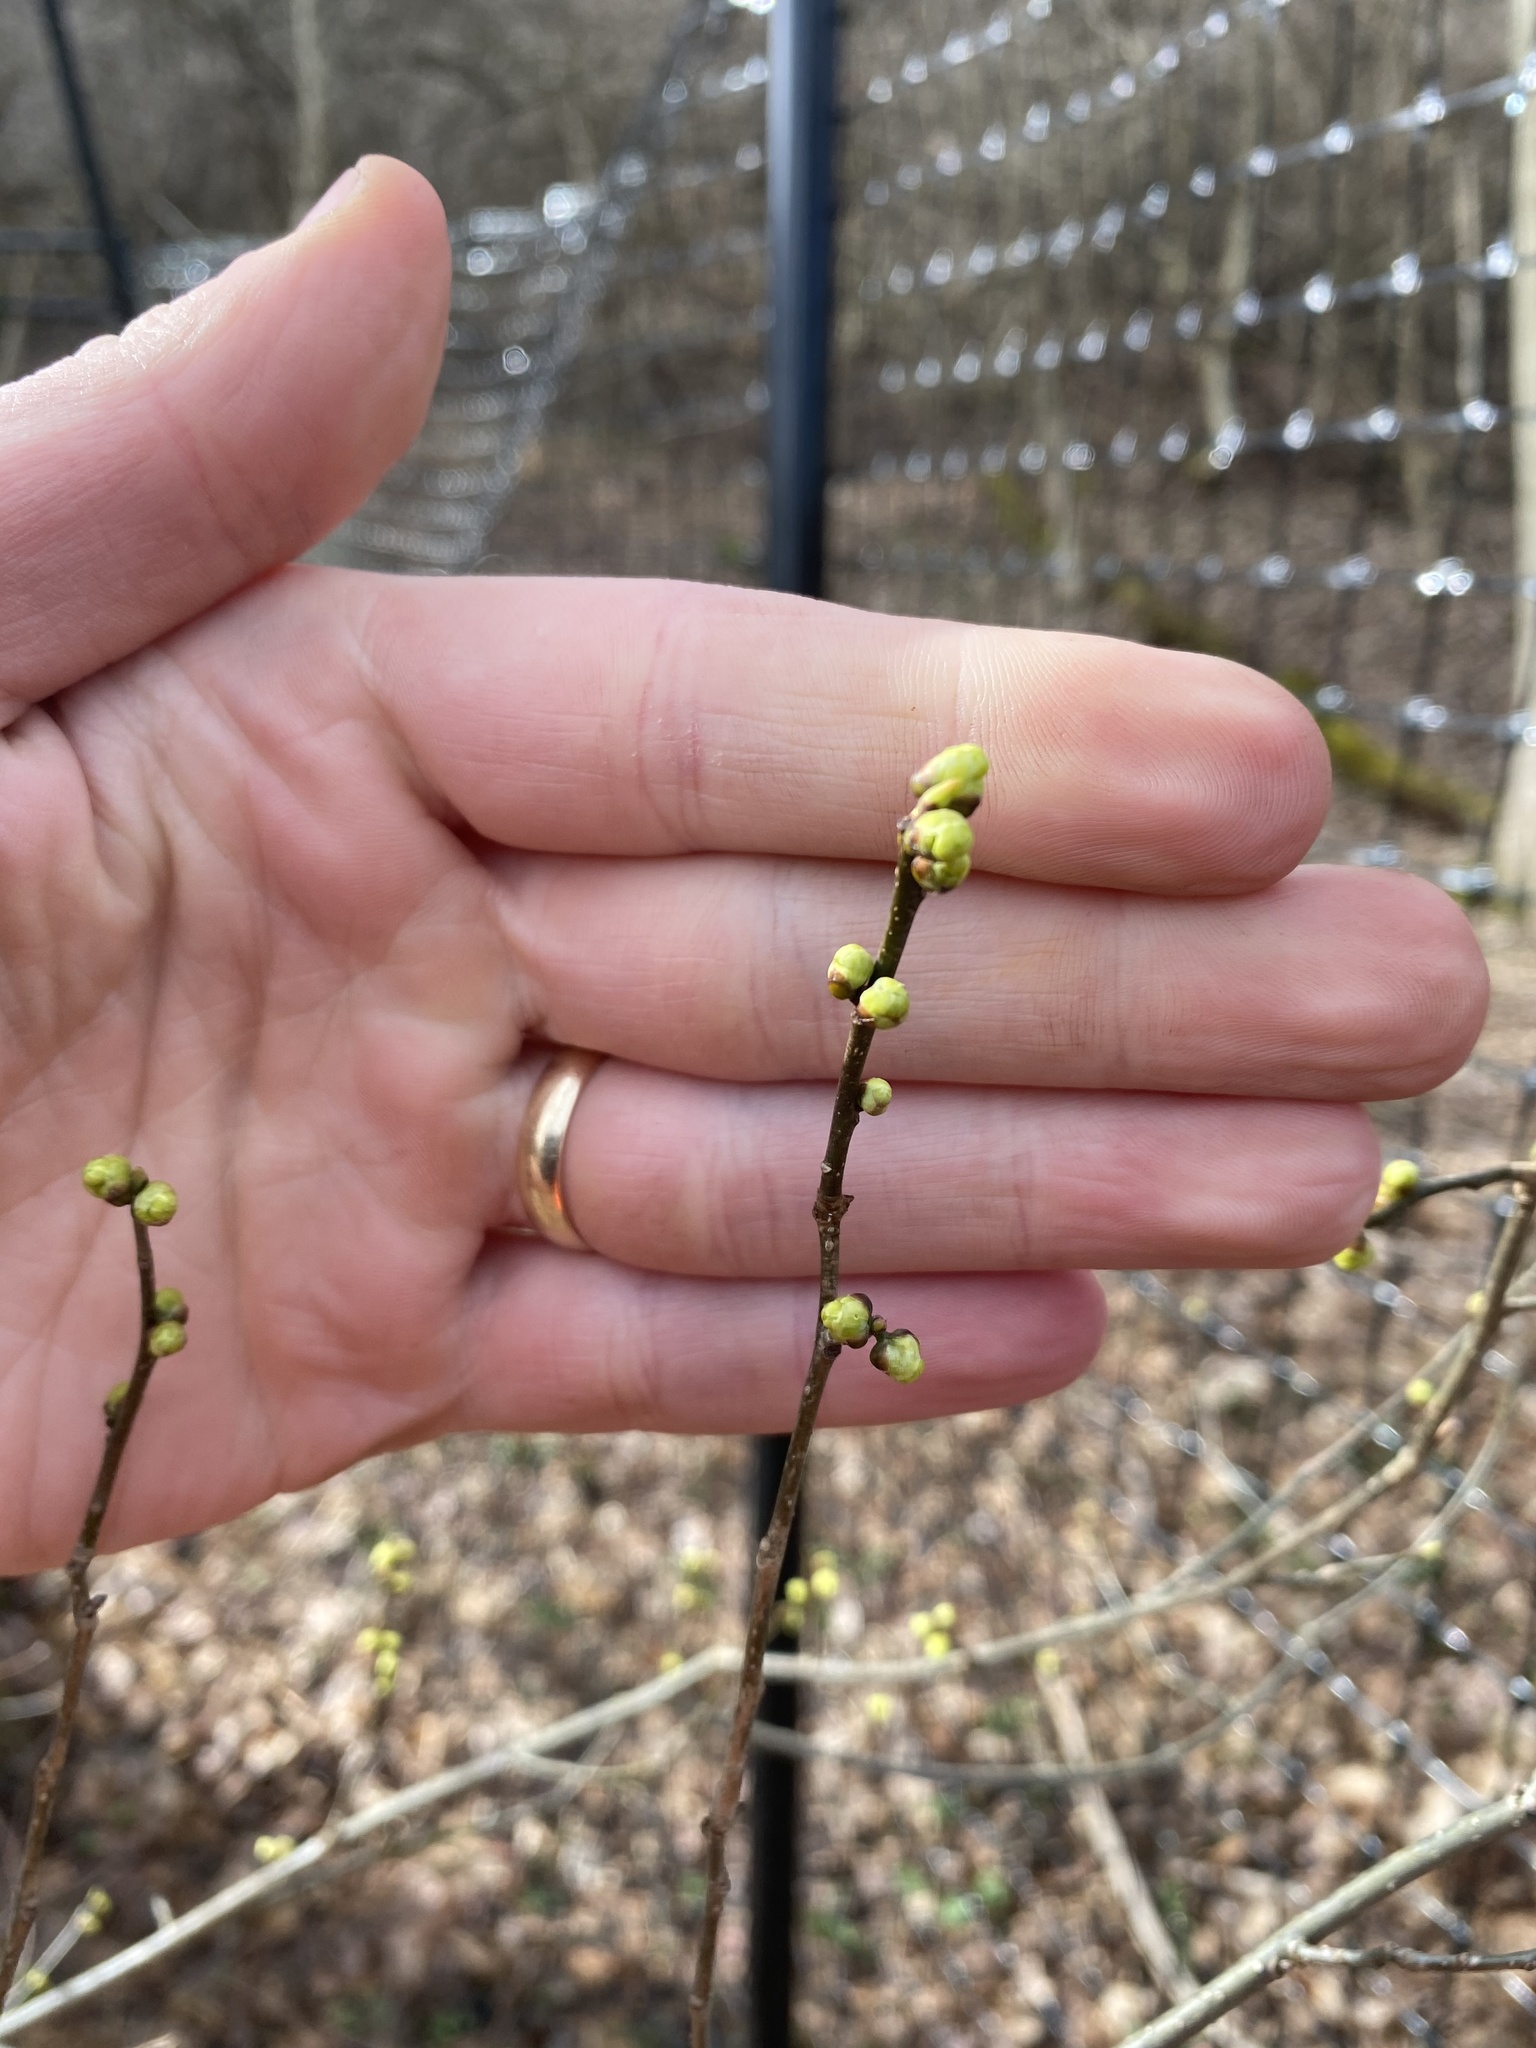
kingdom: Plantae
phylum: Tracheophyta
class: Magnoliopsida
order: Laurales
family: Lauraceae
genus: Lindera
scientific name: Lindera benzoin
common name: Spicebush
